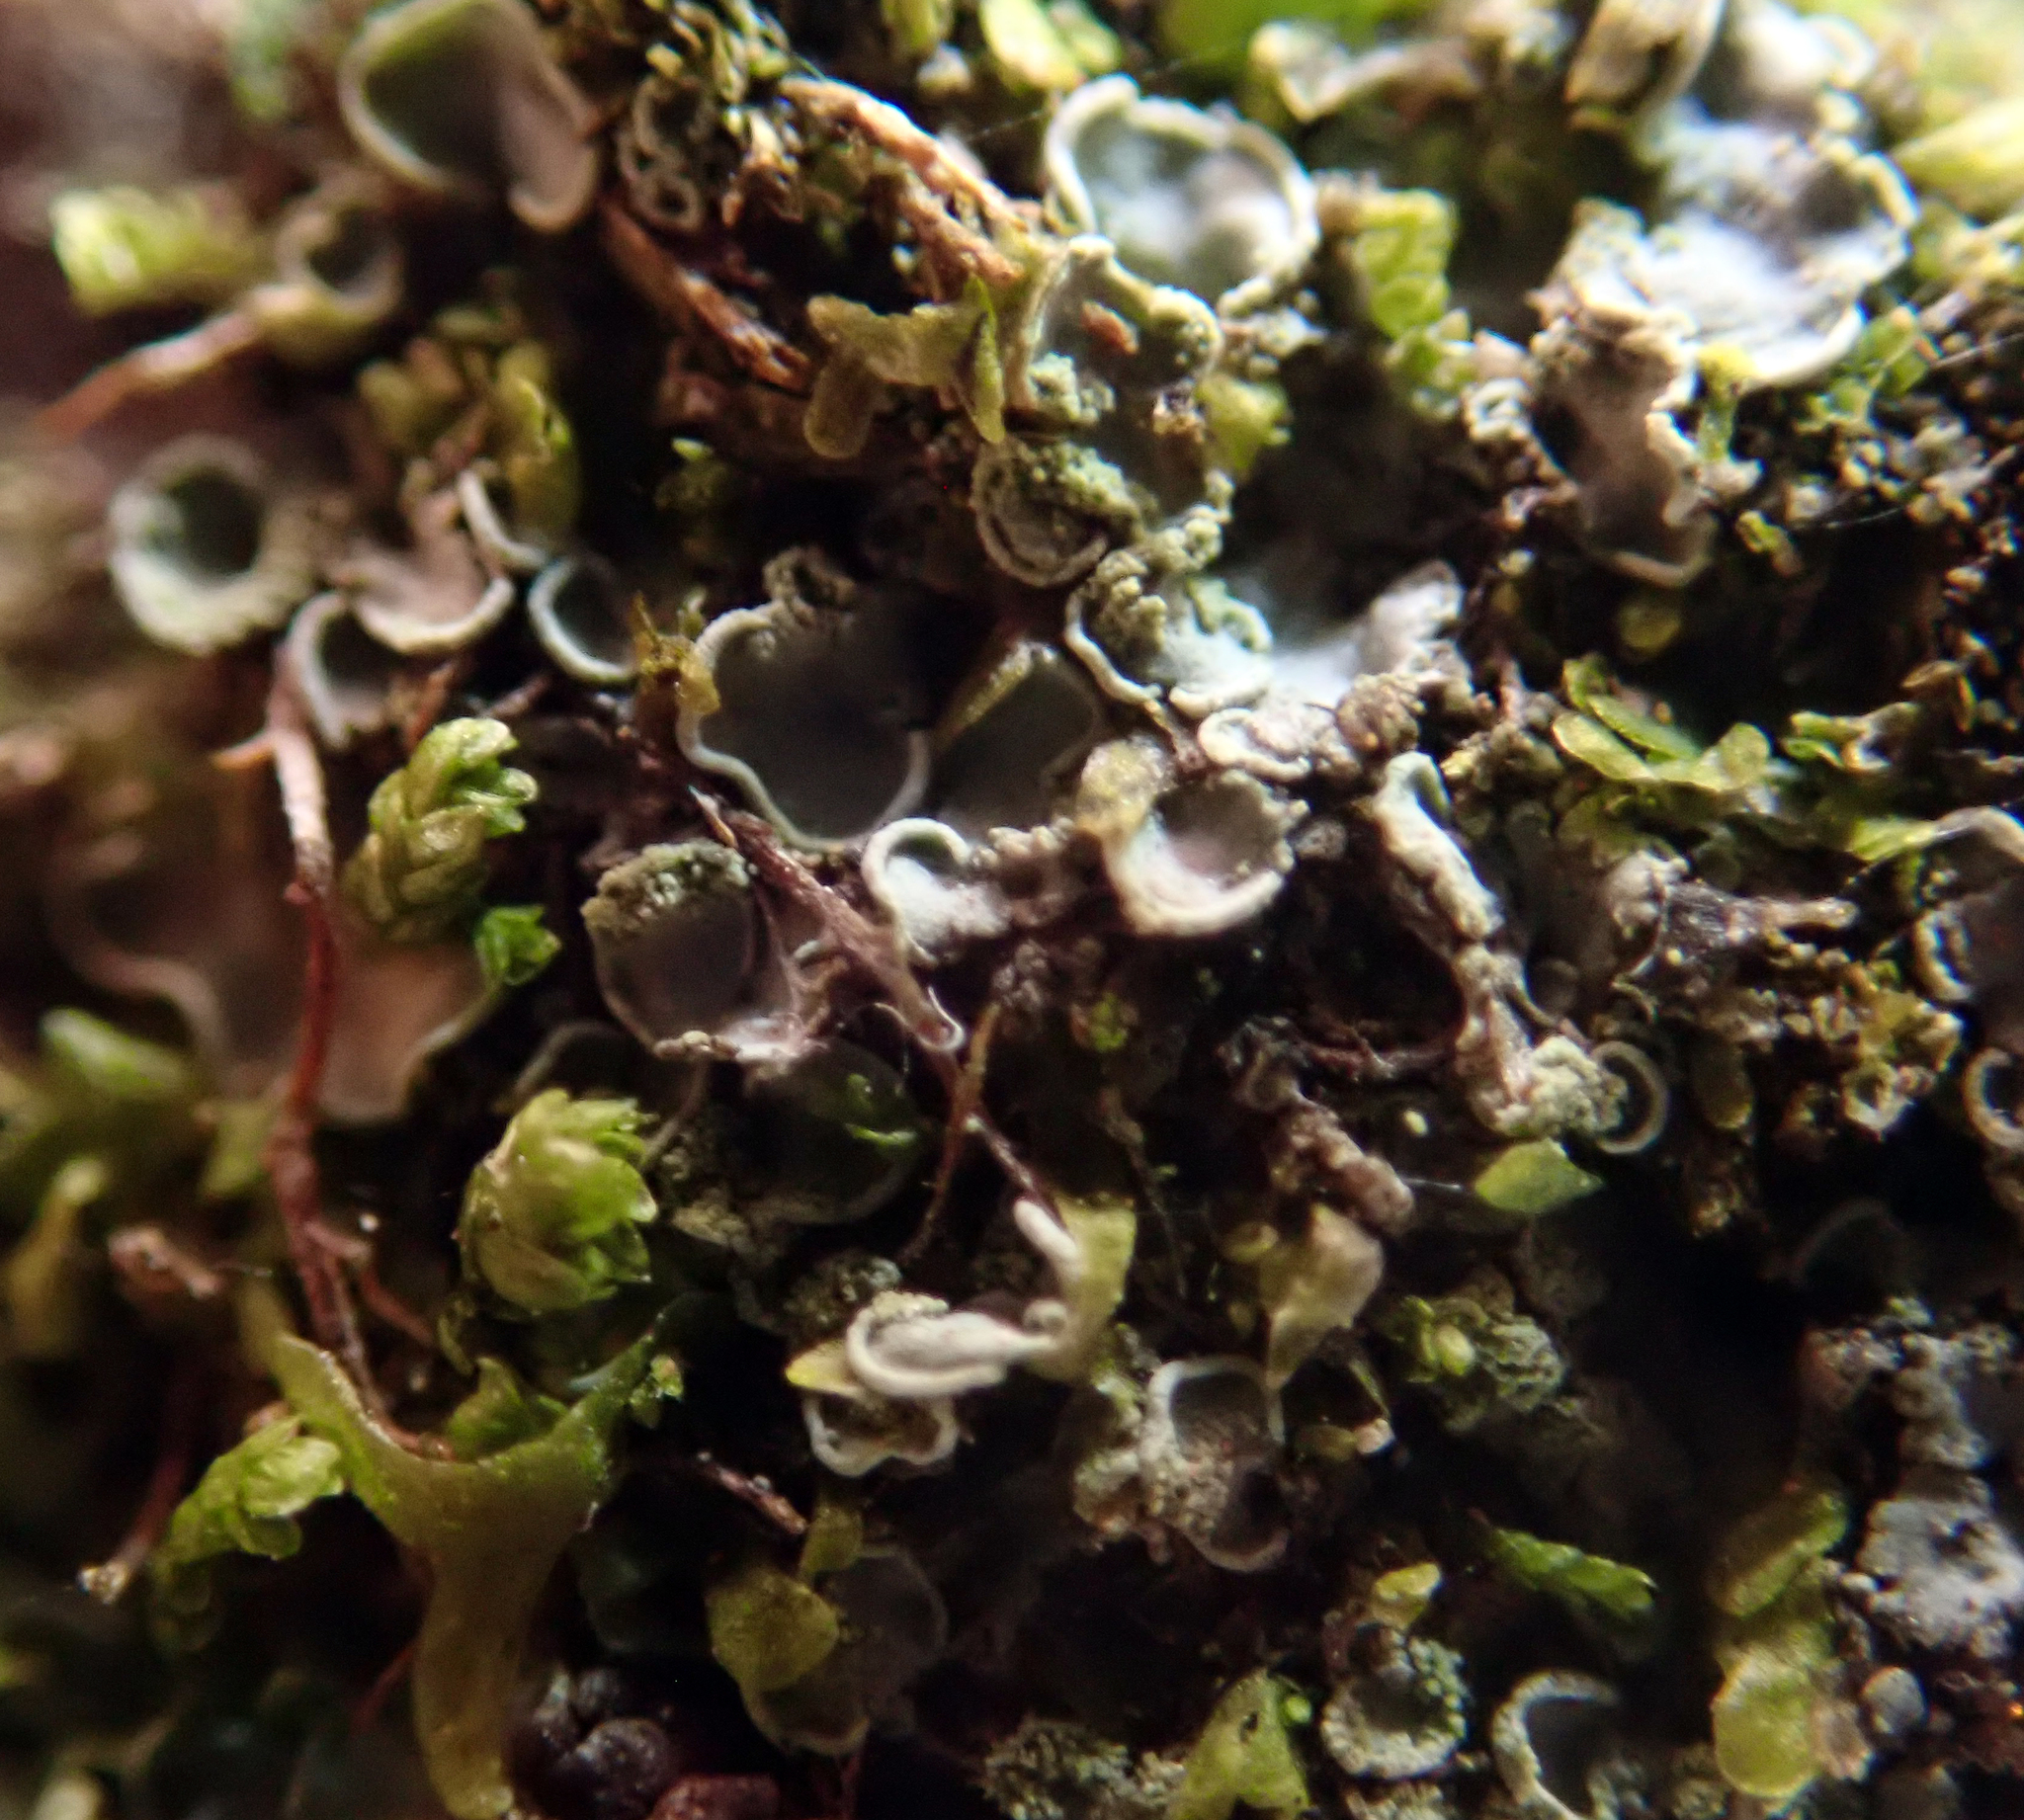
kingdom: Fungi
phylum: Ascomycota
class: Eurotiomycetes
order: Verrucariales
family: Verrucariaceae
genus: Normandina
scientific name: Normandina pulchella
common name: Elf ears lichen
